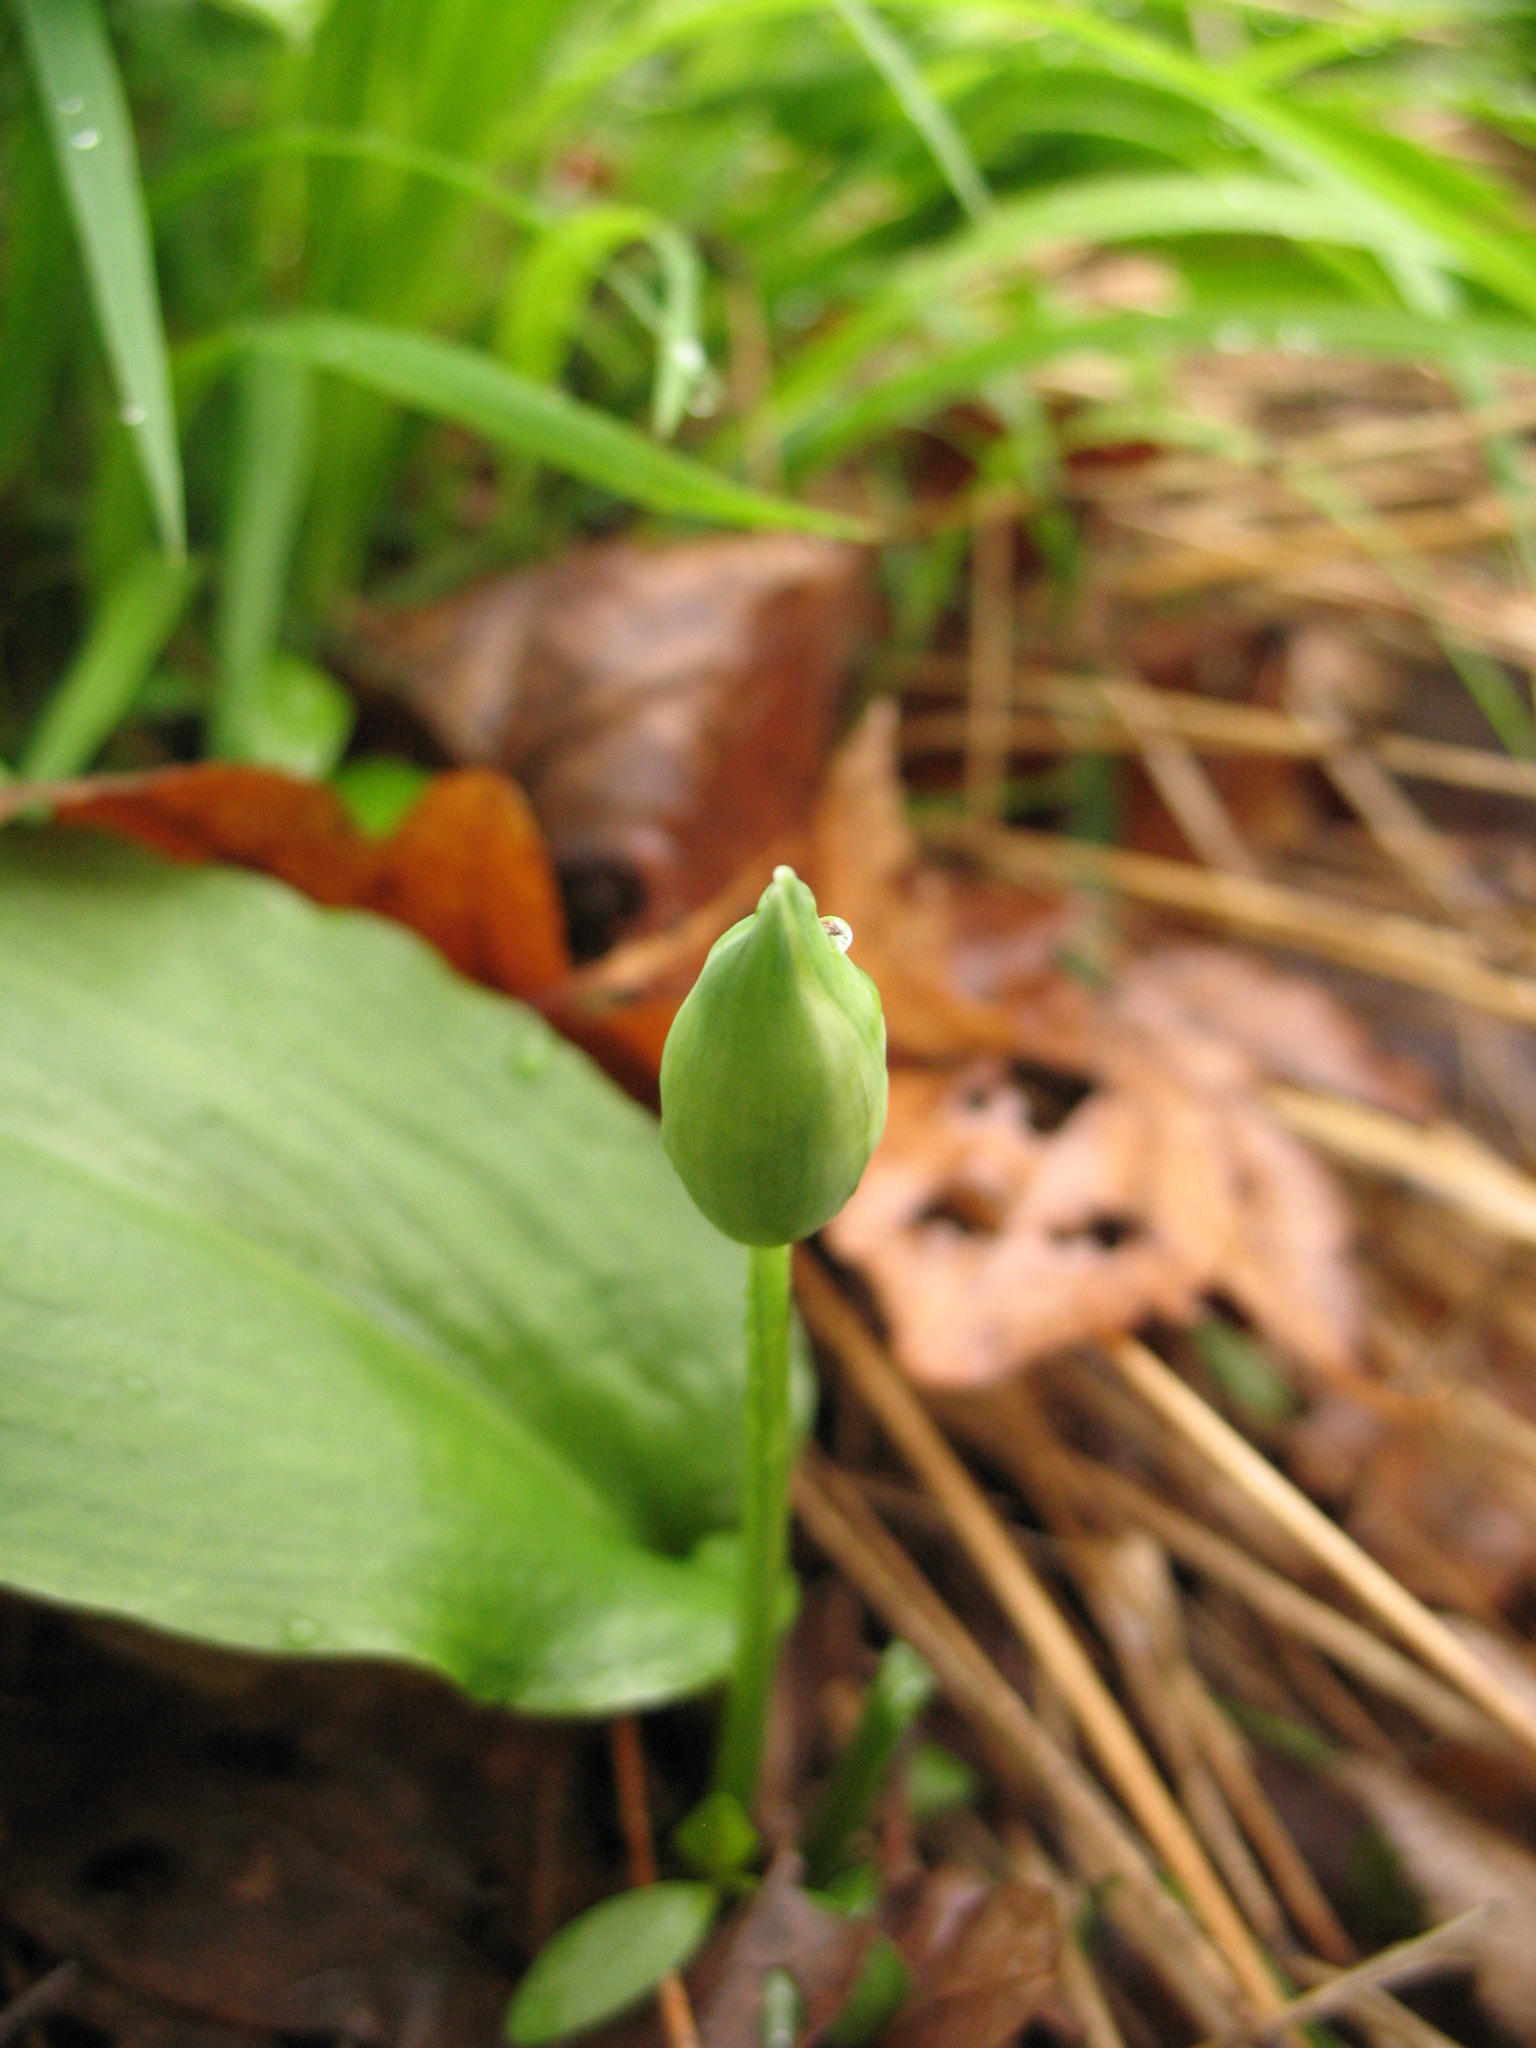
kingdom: Plantae
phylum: Tracheophyta
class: Liliopsida
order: Asparagales
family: Amaryllidaceae
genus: Allium
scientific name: Allium ursinum
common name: Ramsons
